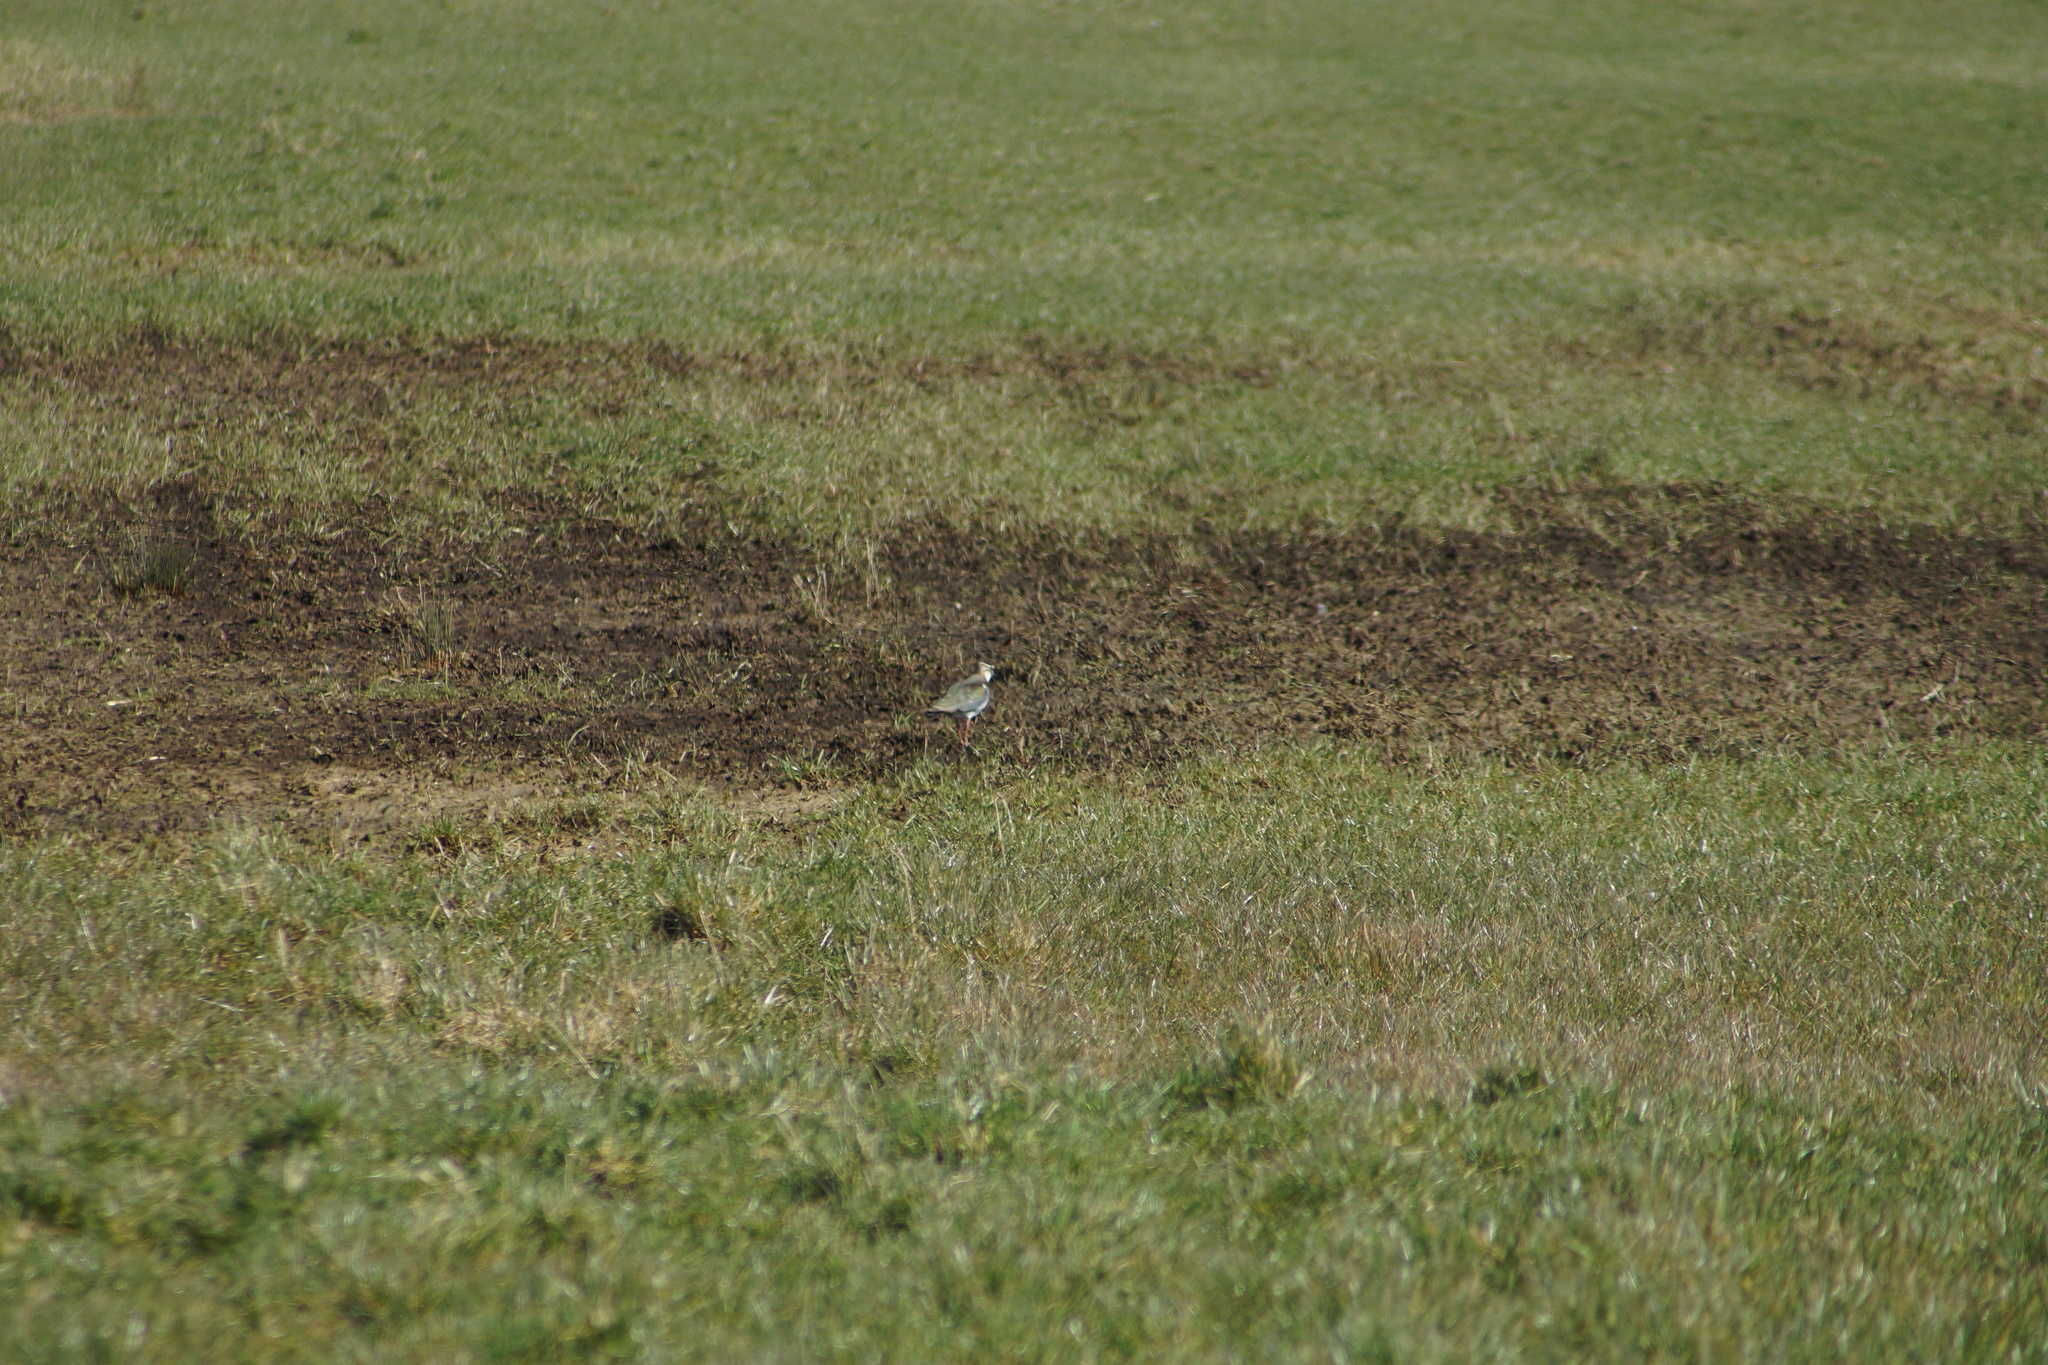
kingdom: Animalia
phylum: Chordata
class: Aves
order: Charadriiformes
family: Charadriidae
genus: Vanellus
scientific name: Vanellus vanellus
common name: Northern lapwing
